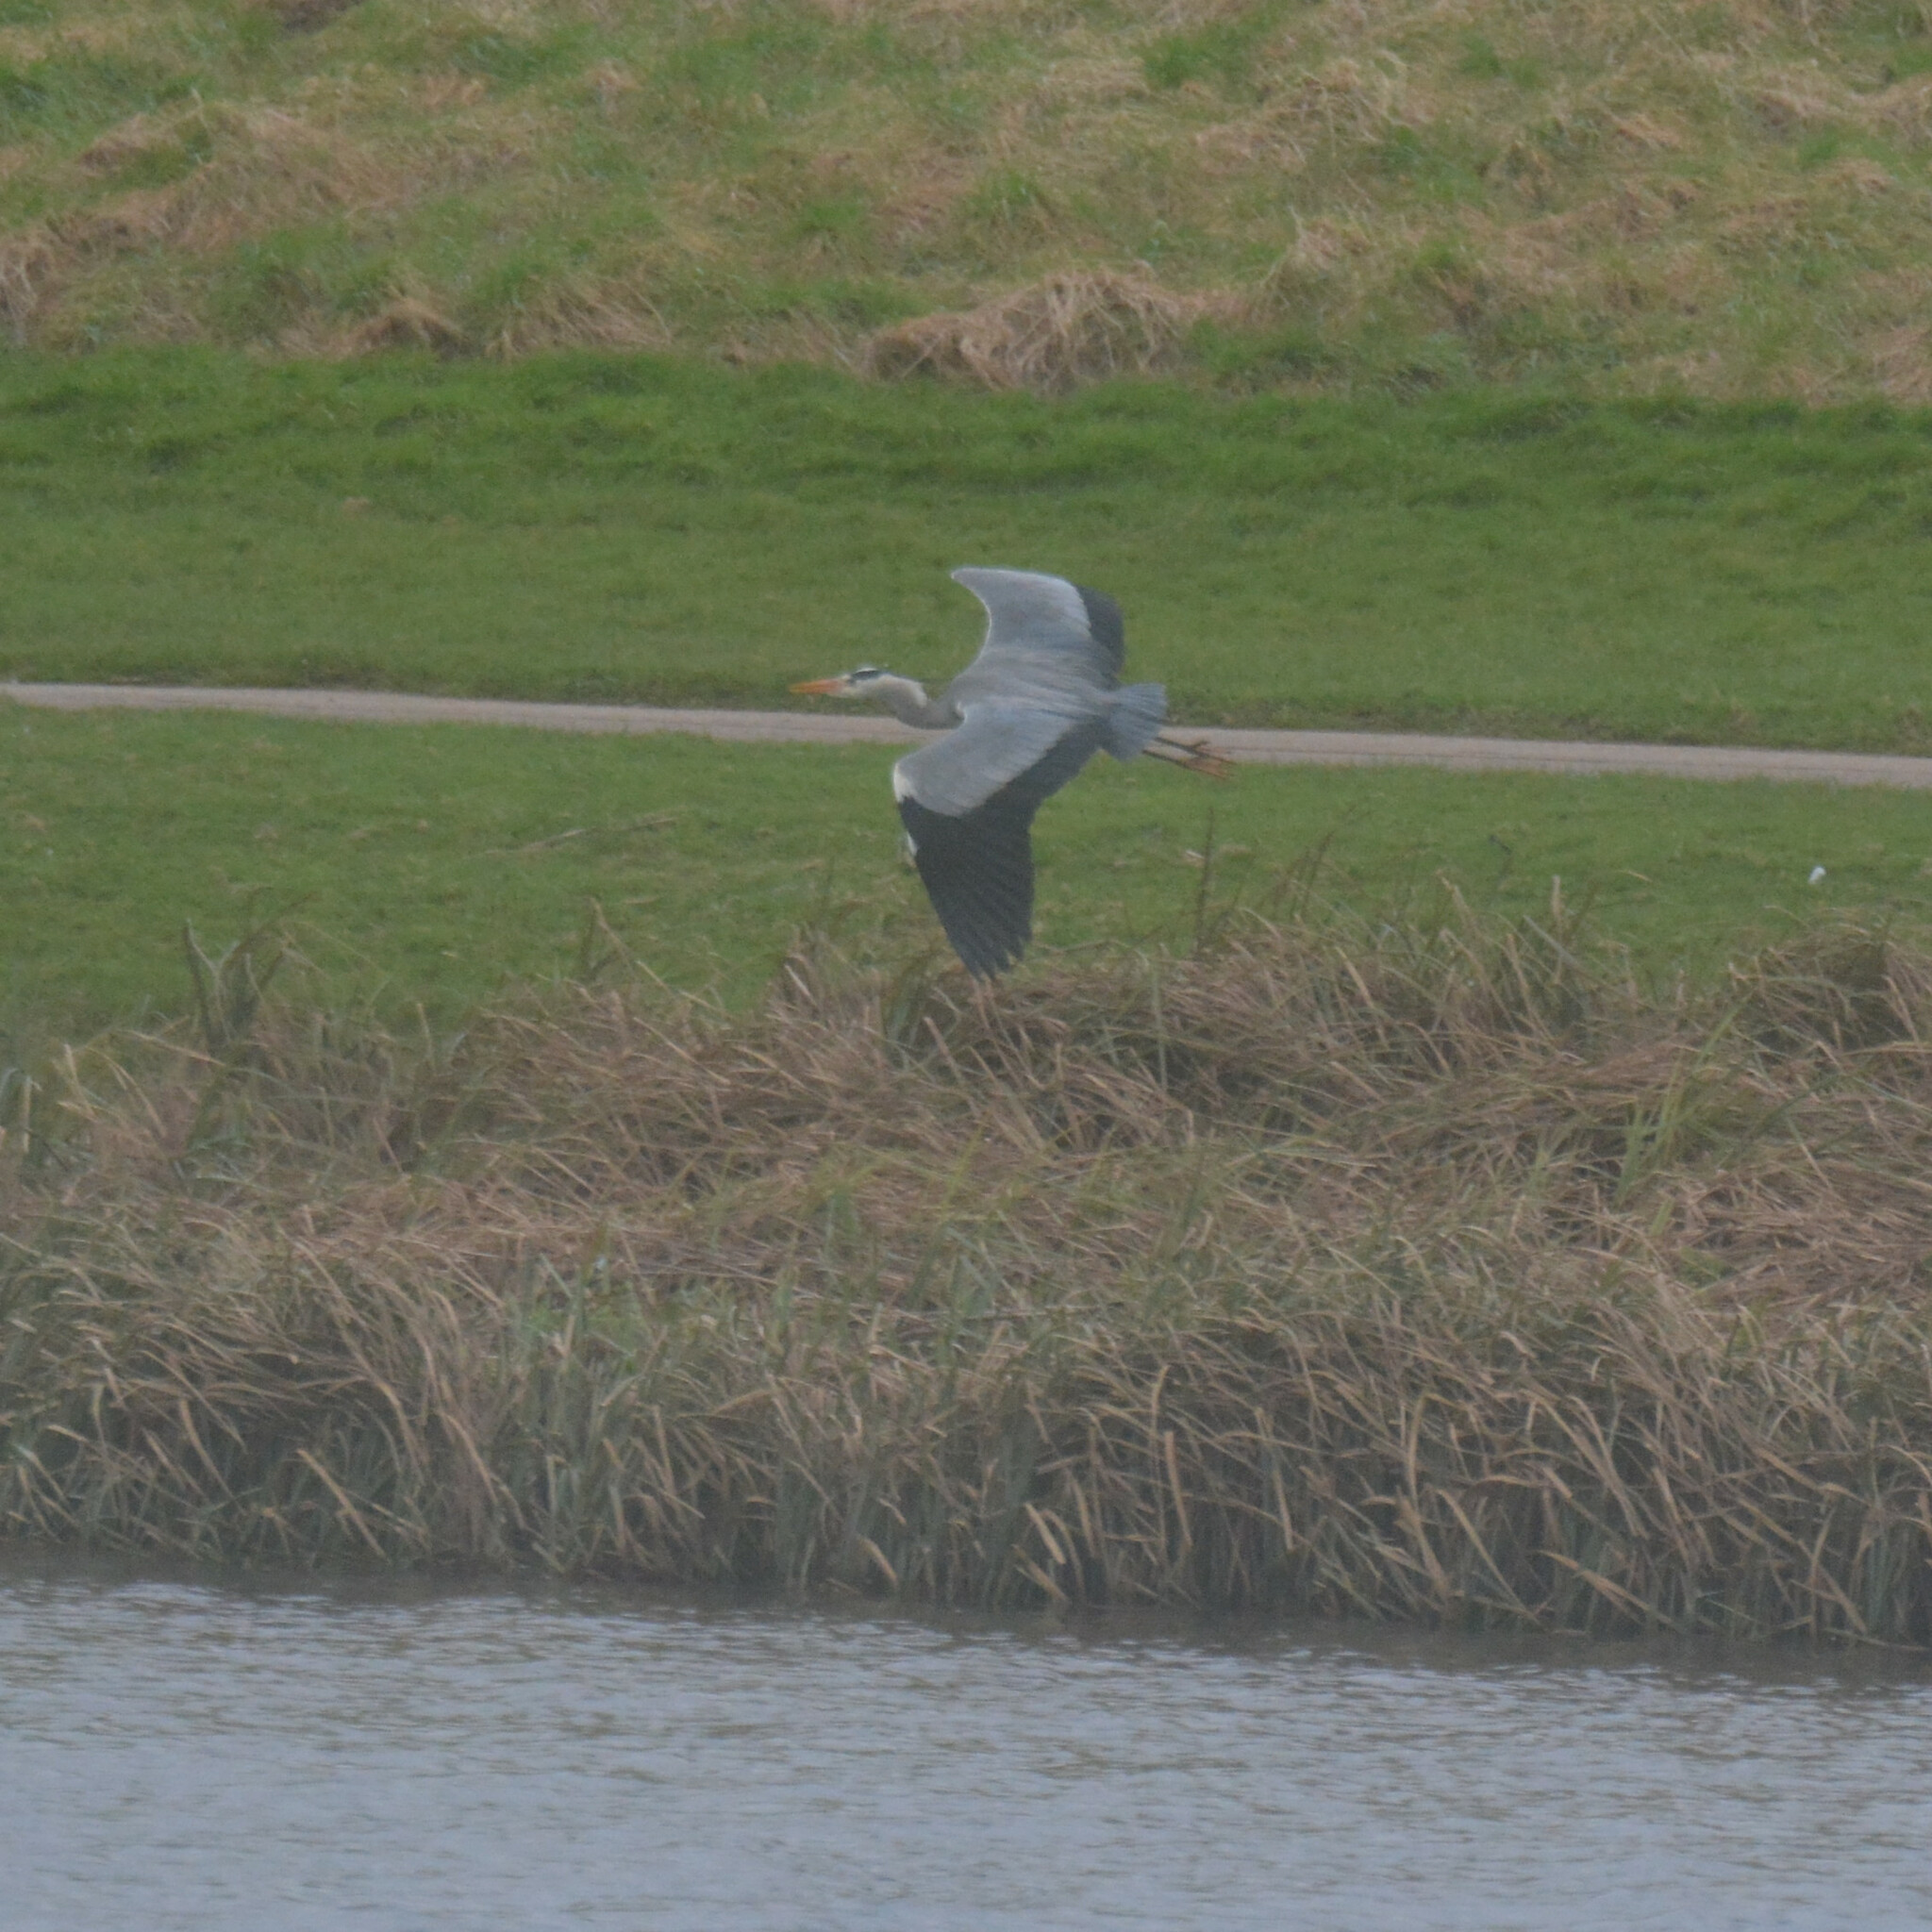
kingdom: Animalia
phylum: Chordata
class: Aves
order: Pelecaniformes
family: Ardeidae
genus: Ardea
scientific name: Ardea cinerea
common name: Grey heron
